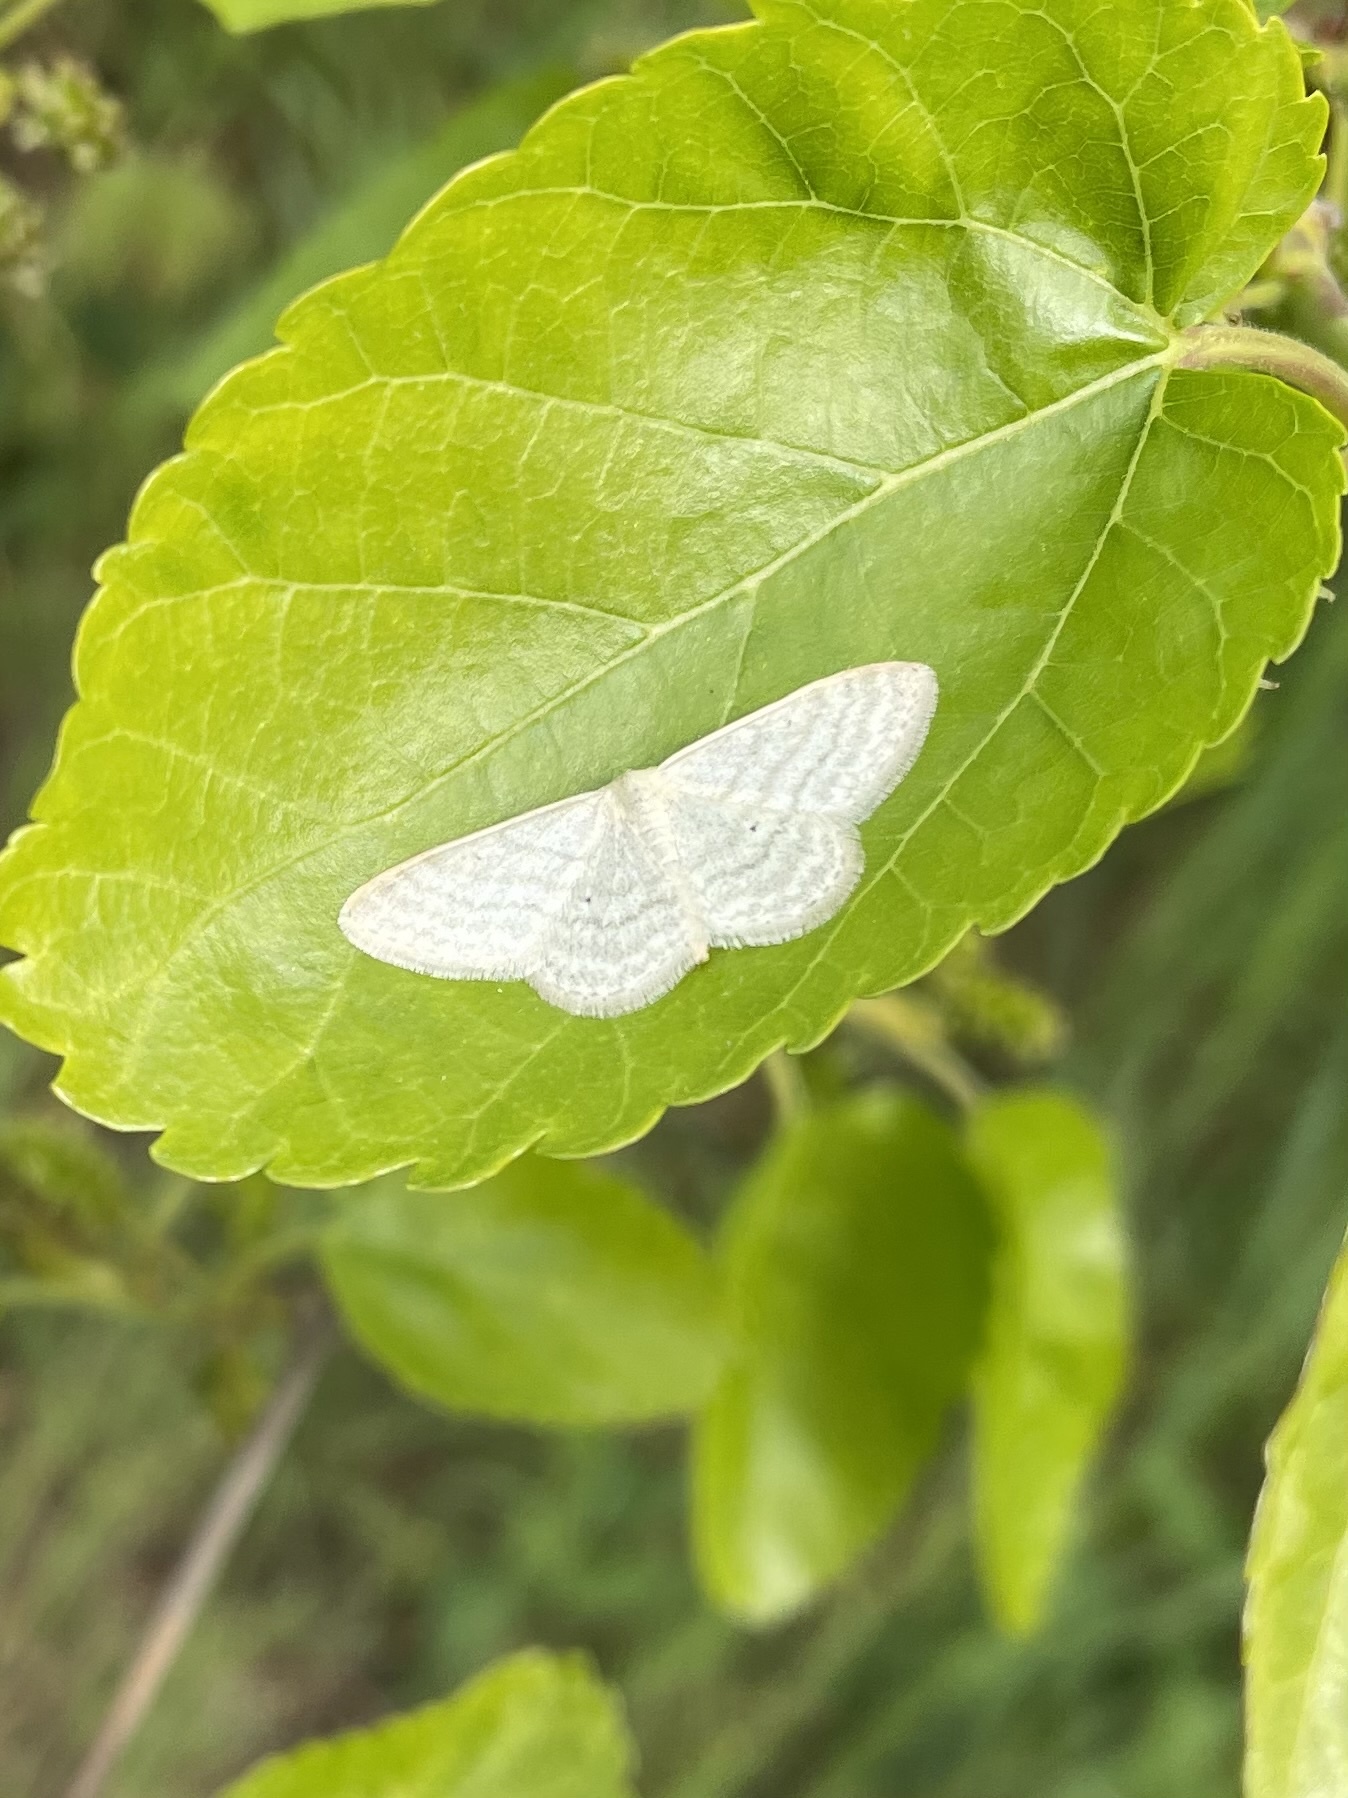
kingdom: Animalia
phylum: Arthropoda
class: Insecta
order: Lepidoptera
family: Geometridae
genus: Idaea
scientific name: Idaea subsericeata
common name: Satin wave
